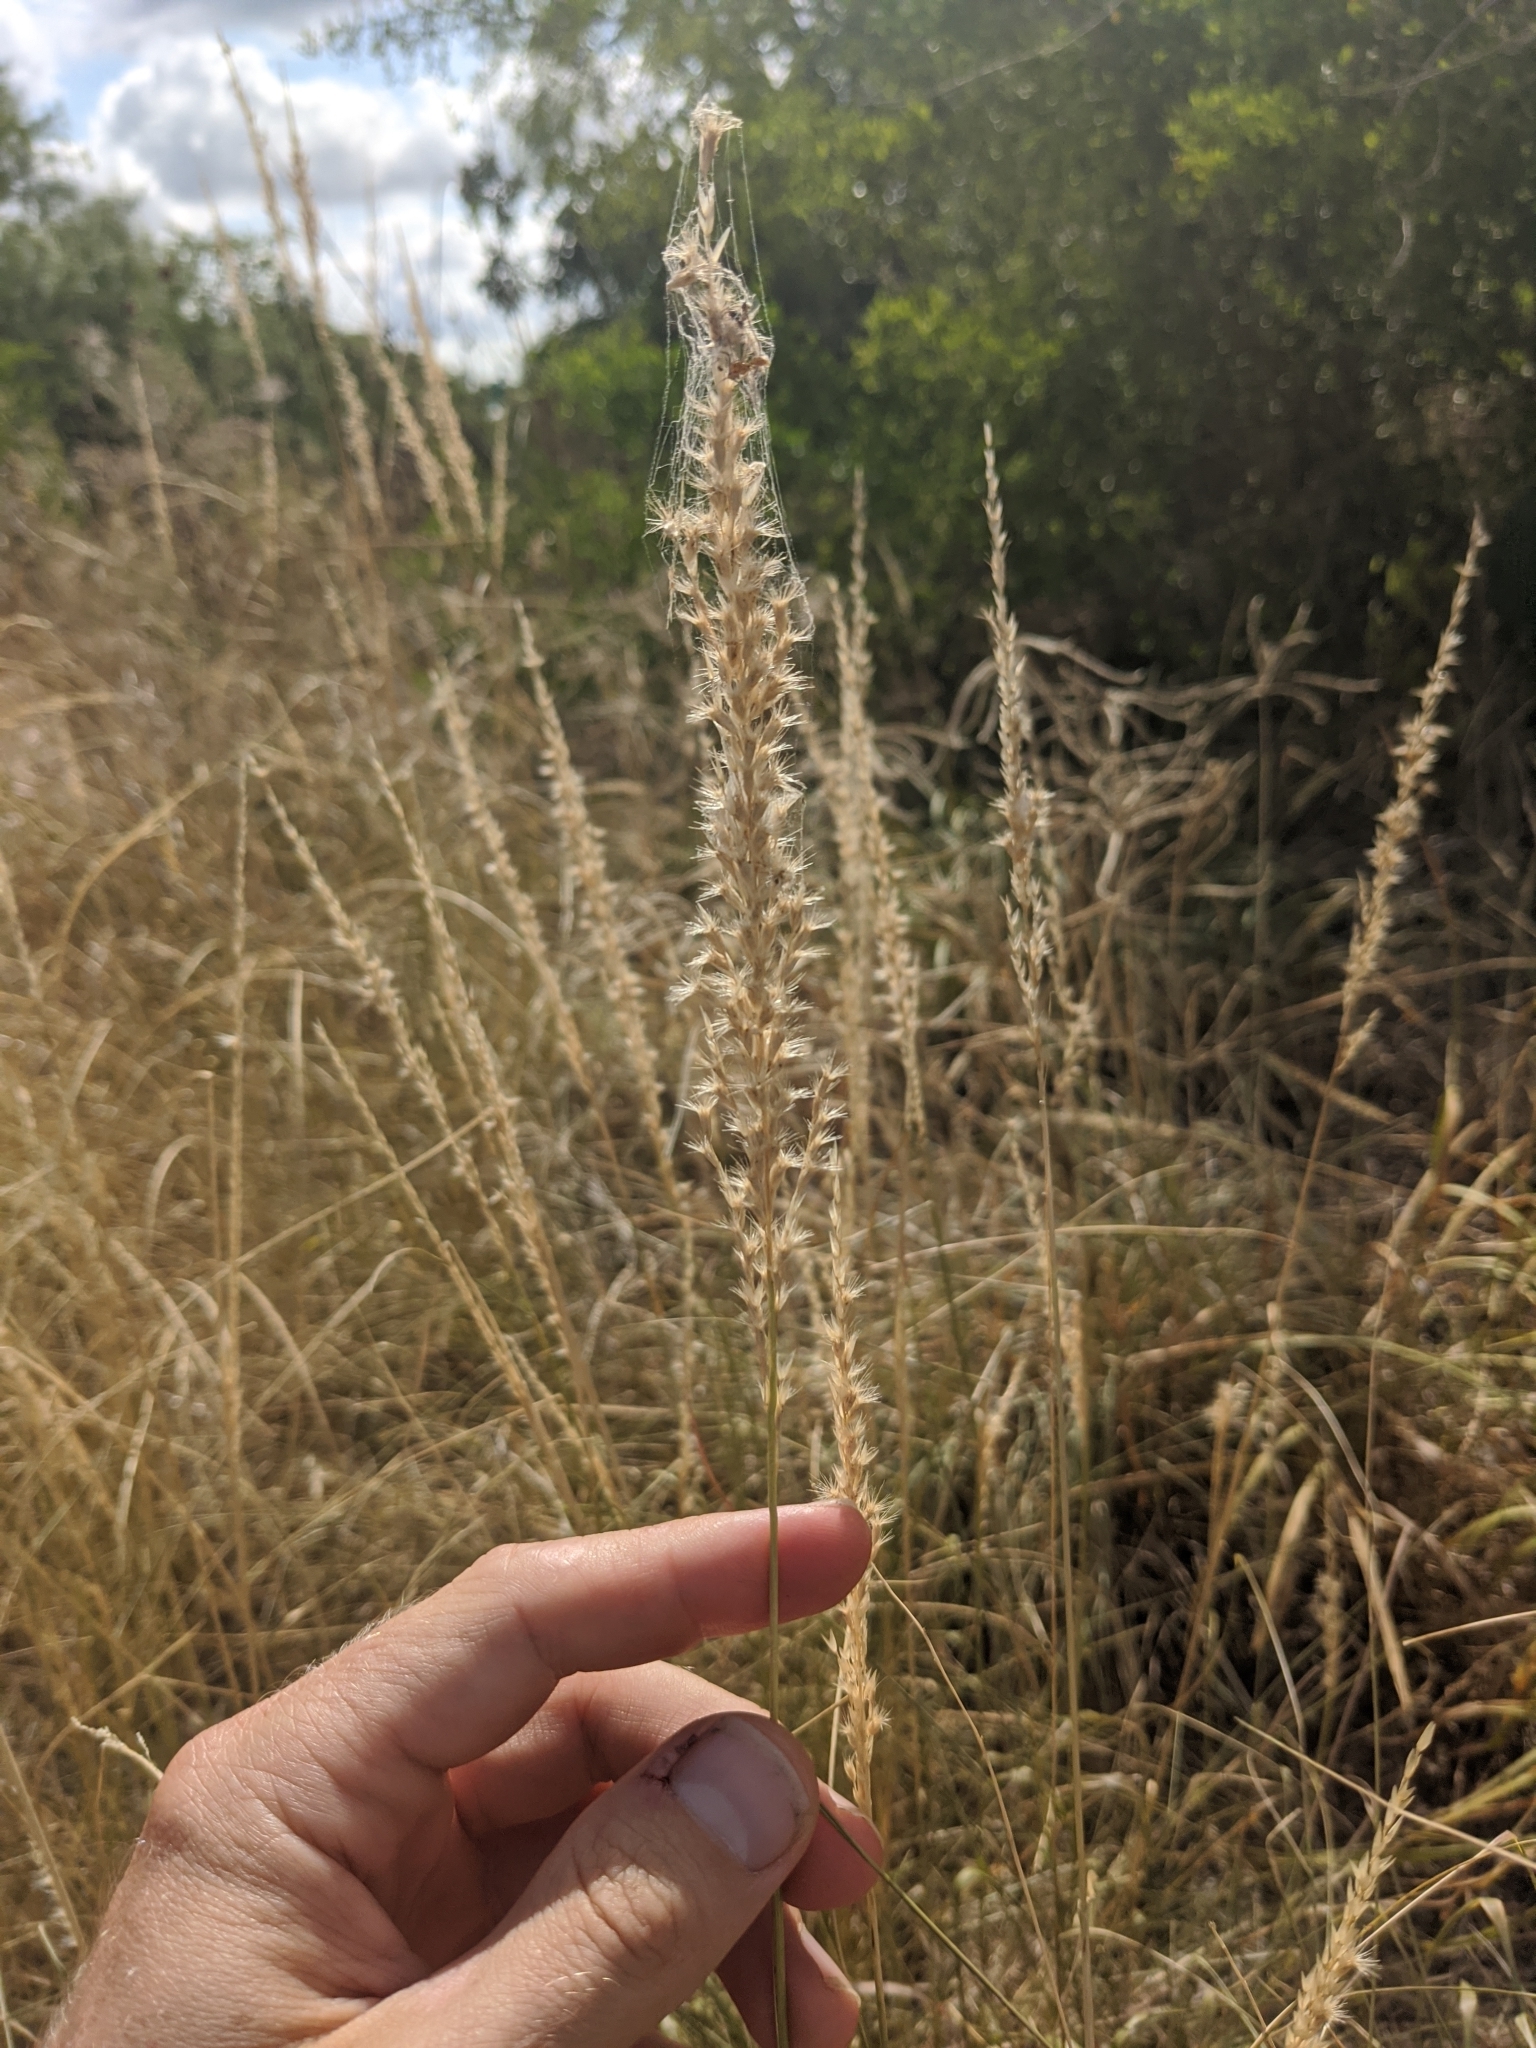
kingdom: Plantae
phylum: Tracheophyta
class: Liliopsida
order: Poales
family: Poaceae
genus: Pappophorum
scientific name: Pappophorum bicolor
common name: Pink pappus grass
